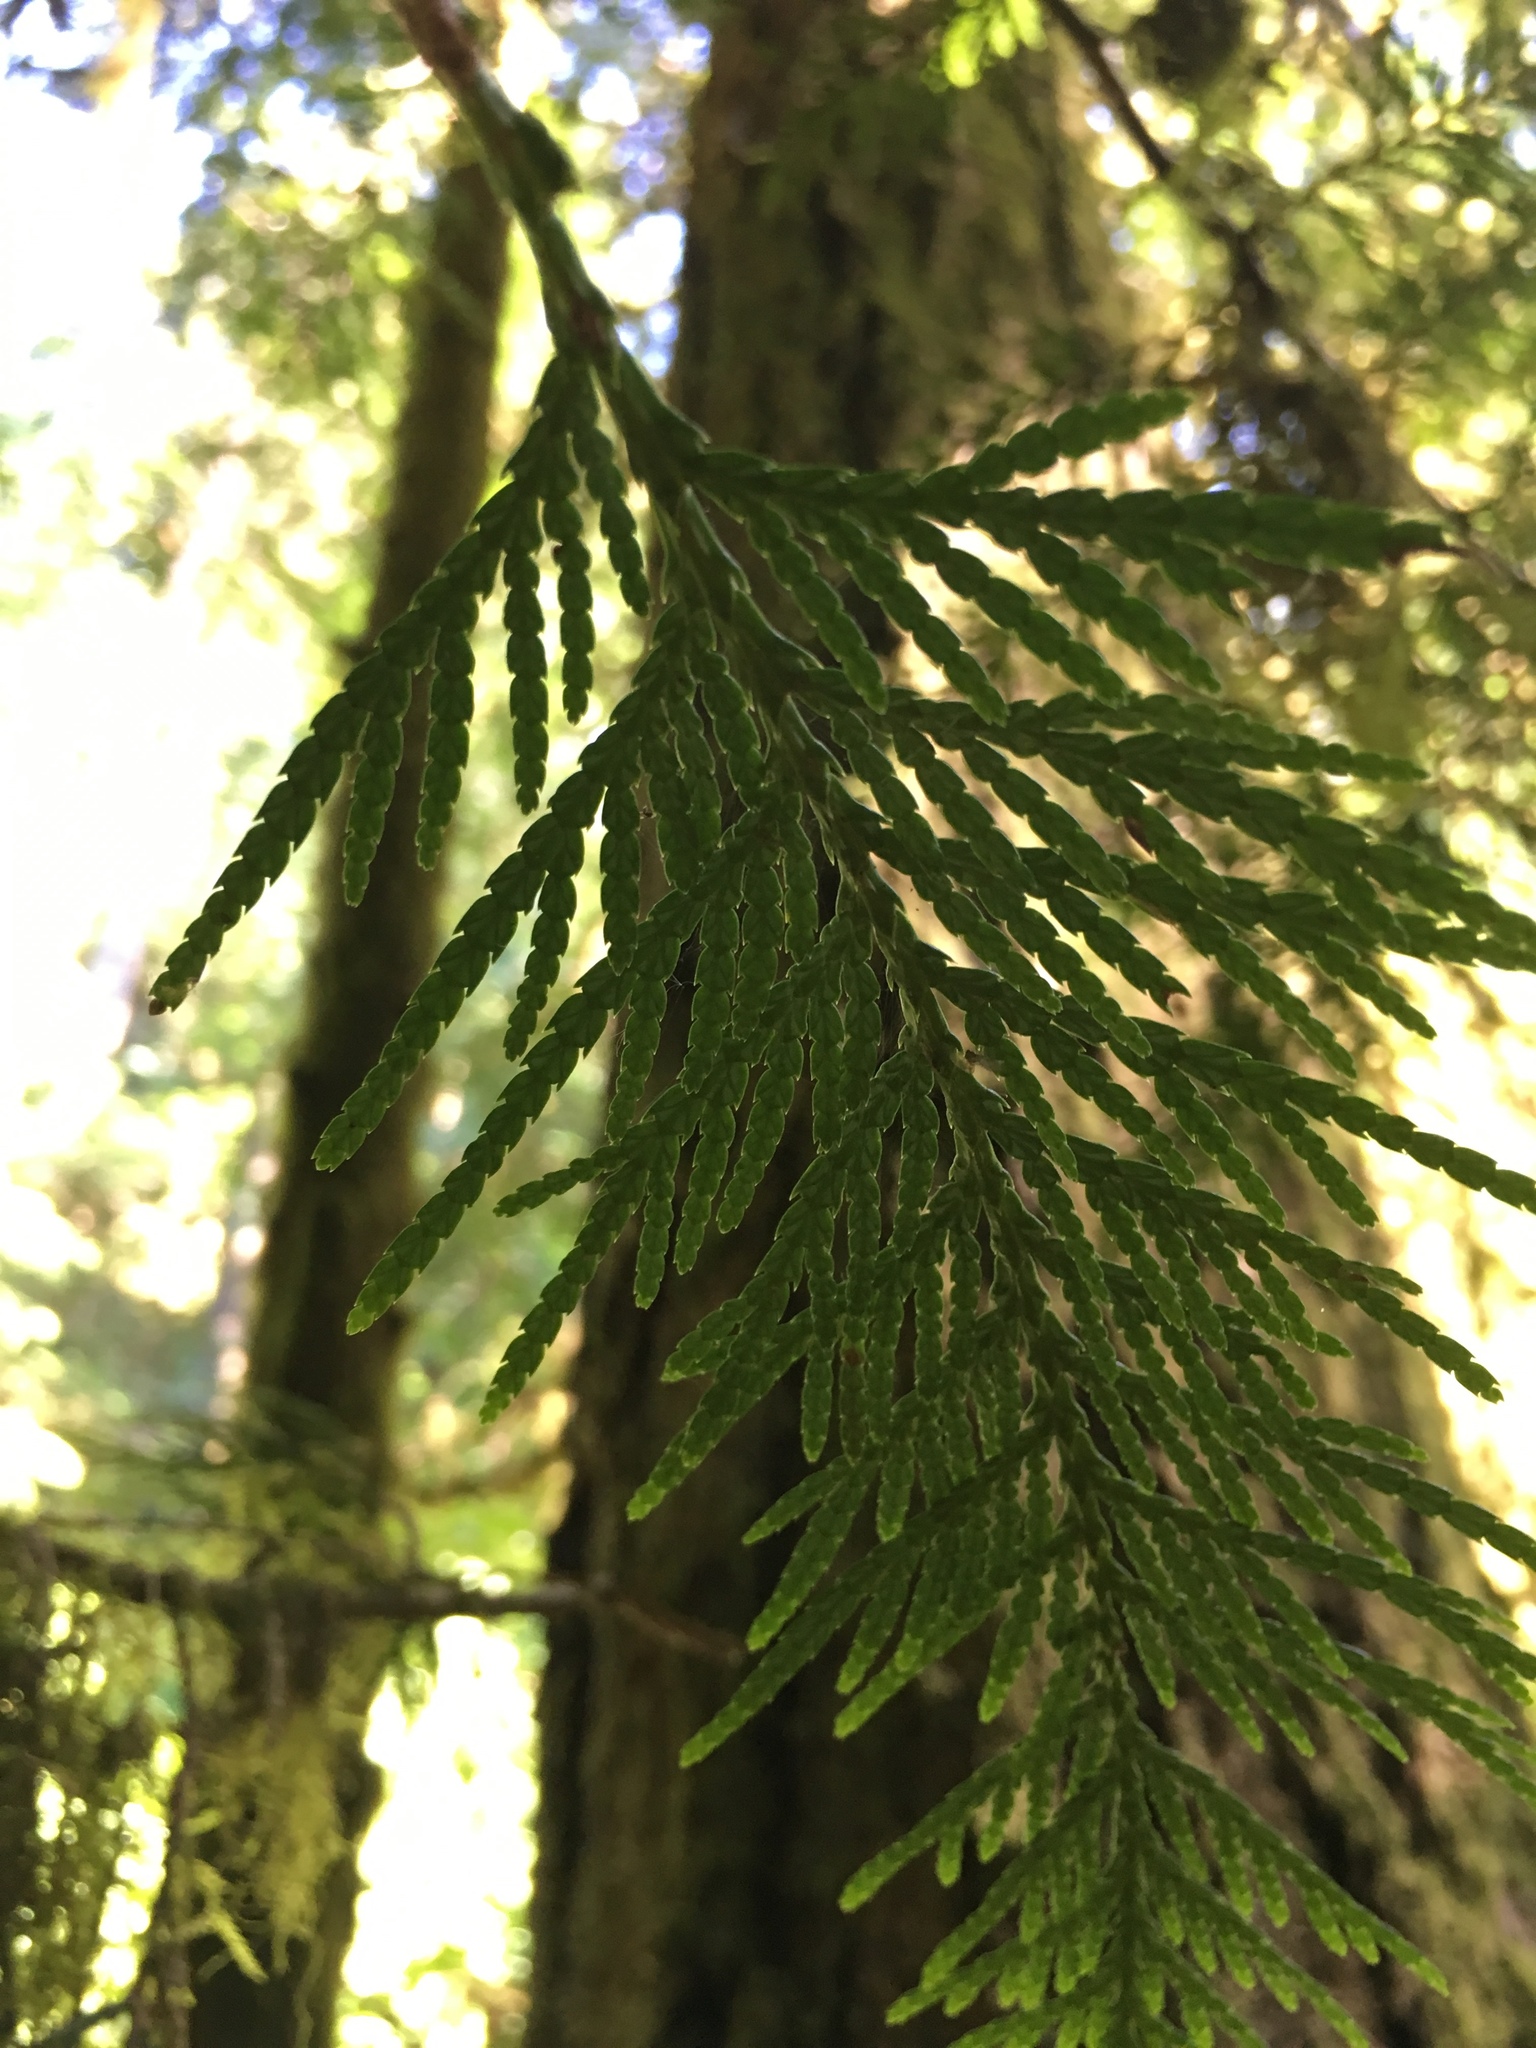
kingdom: Plantae
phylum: Tracheophyta
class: Pinopsida
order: Pinales
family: Cupressaceae
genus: Thuja
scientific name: Thuja plicata
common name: Western red-cedar
